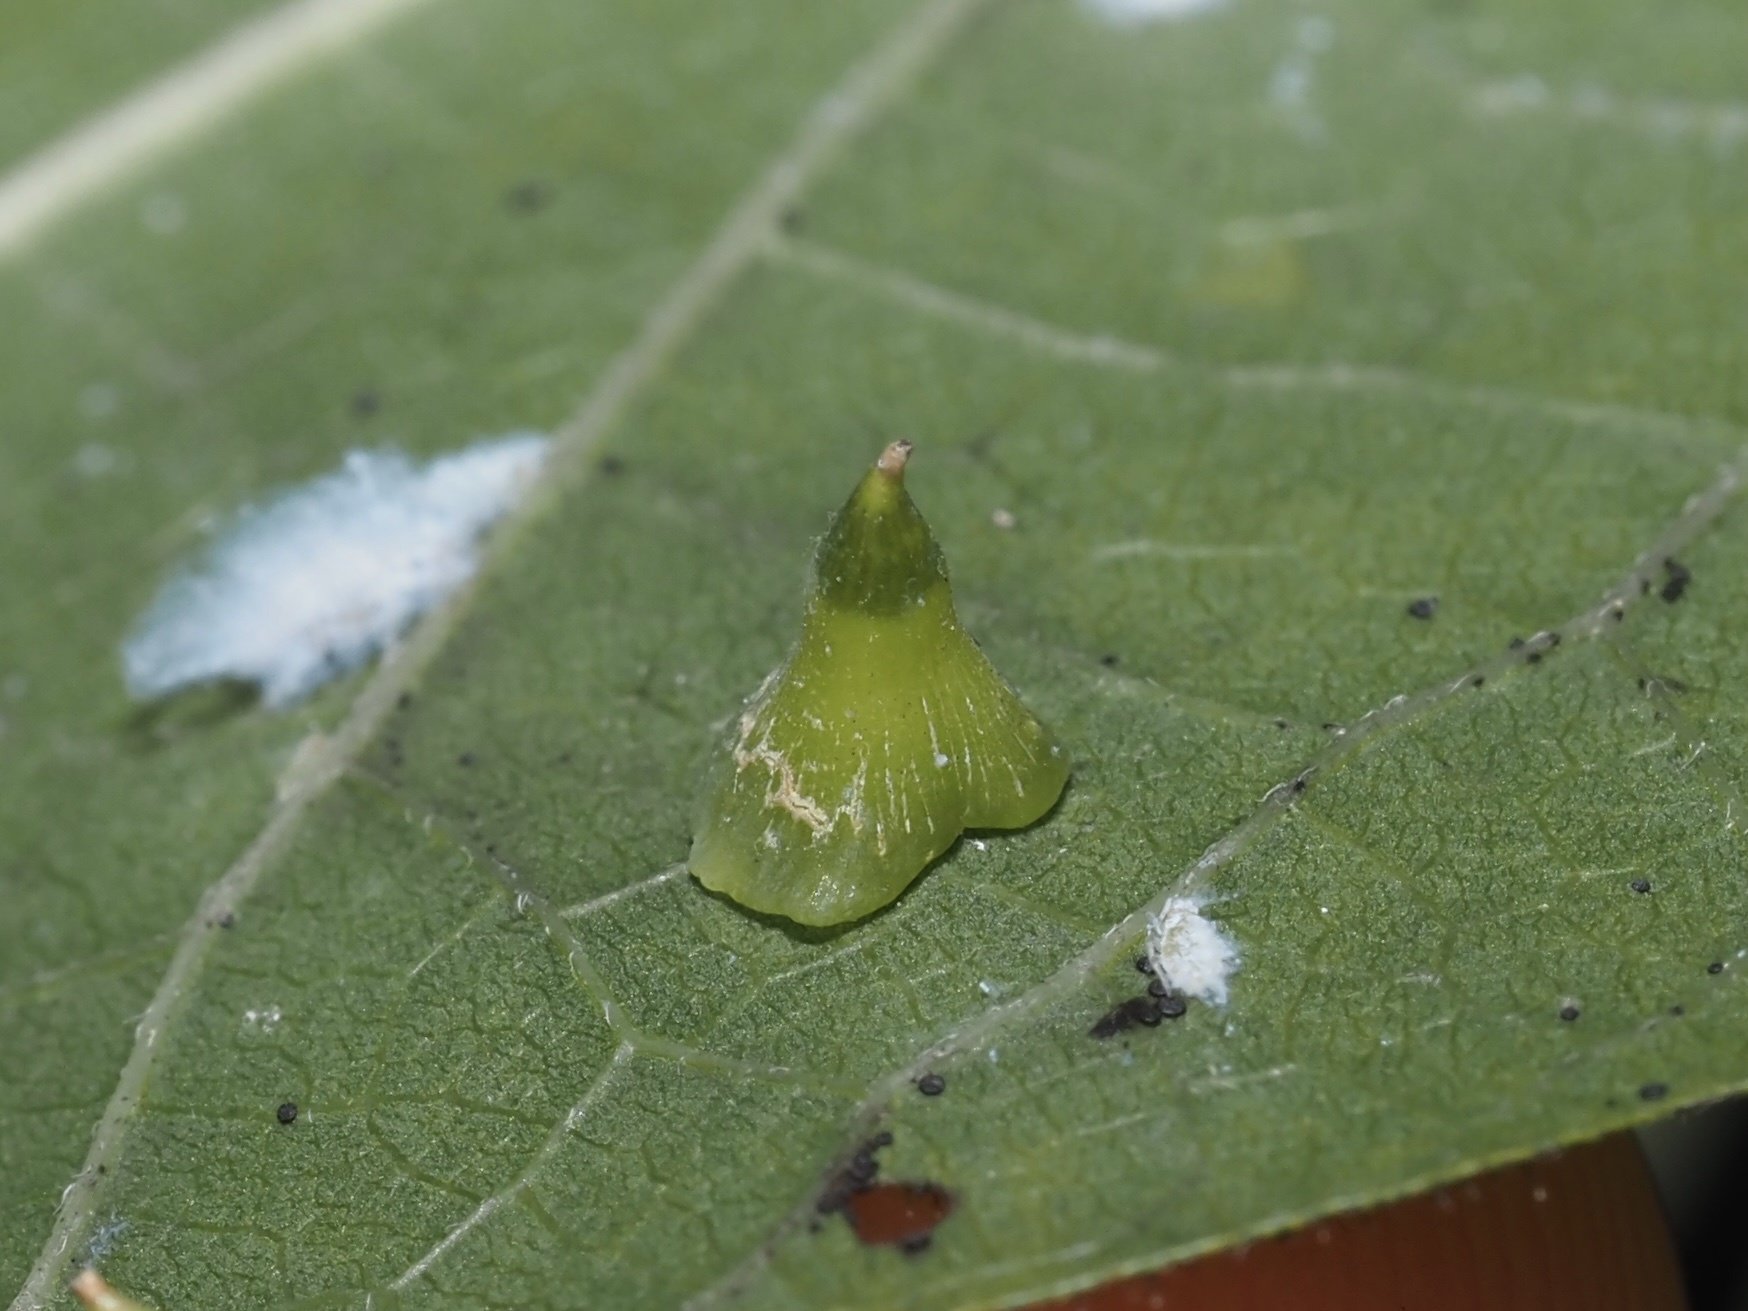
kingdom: Animalia
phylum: Arthropoda
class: Insecta
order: Diptera
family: Cecidomyiidae
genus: Celticecis
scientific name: Celticecis spiniformis
